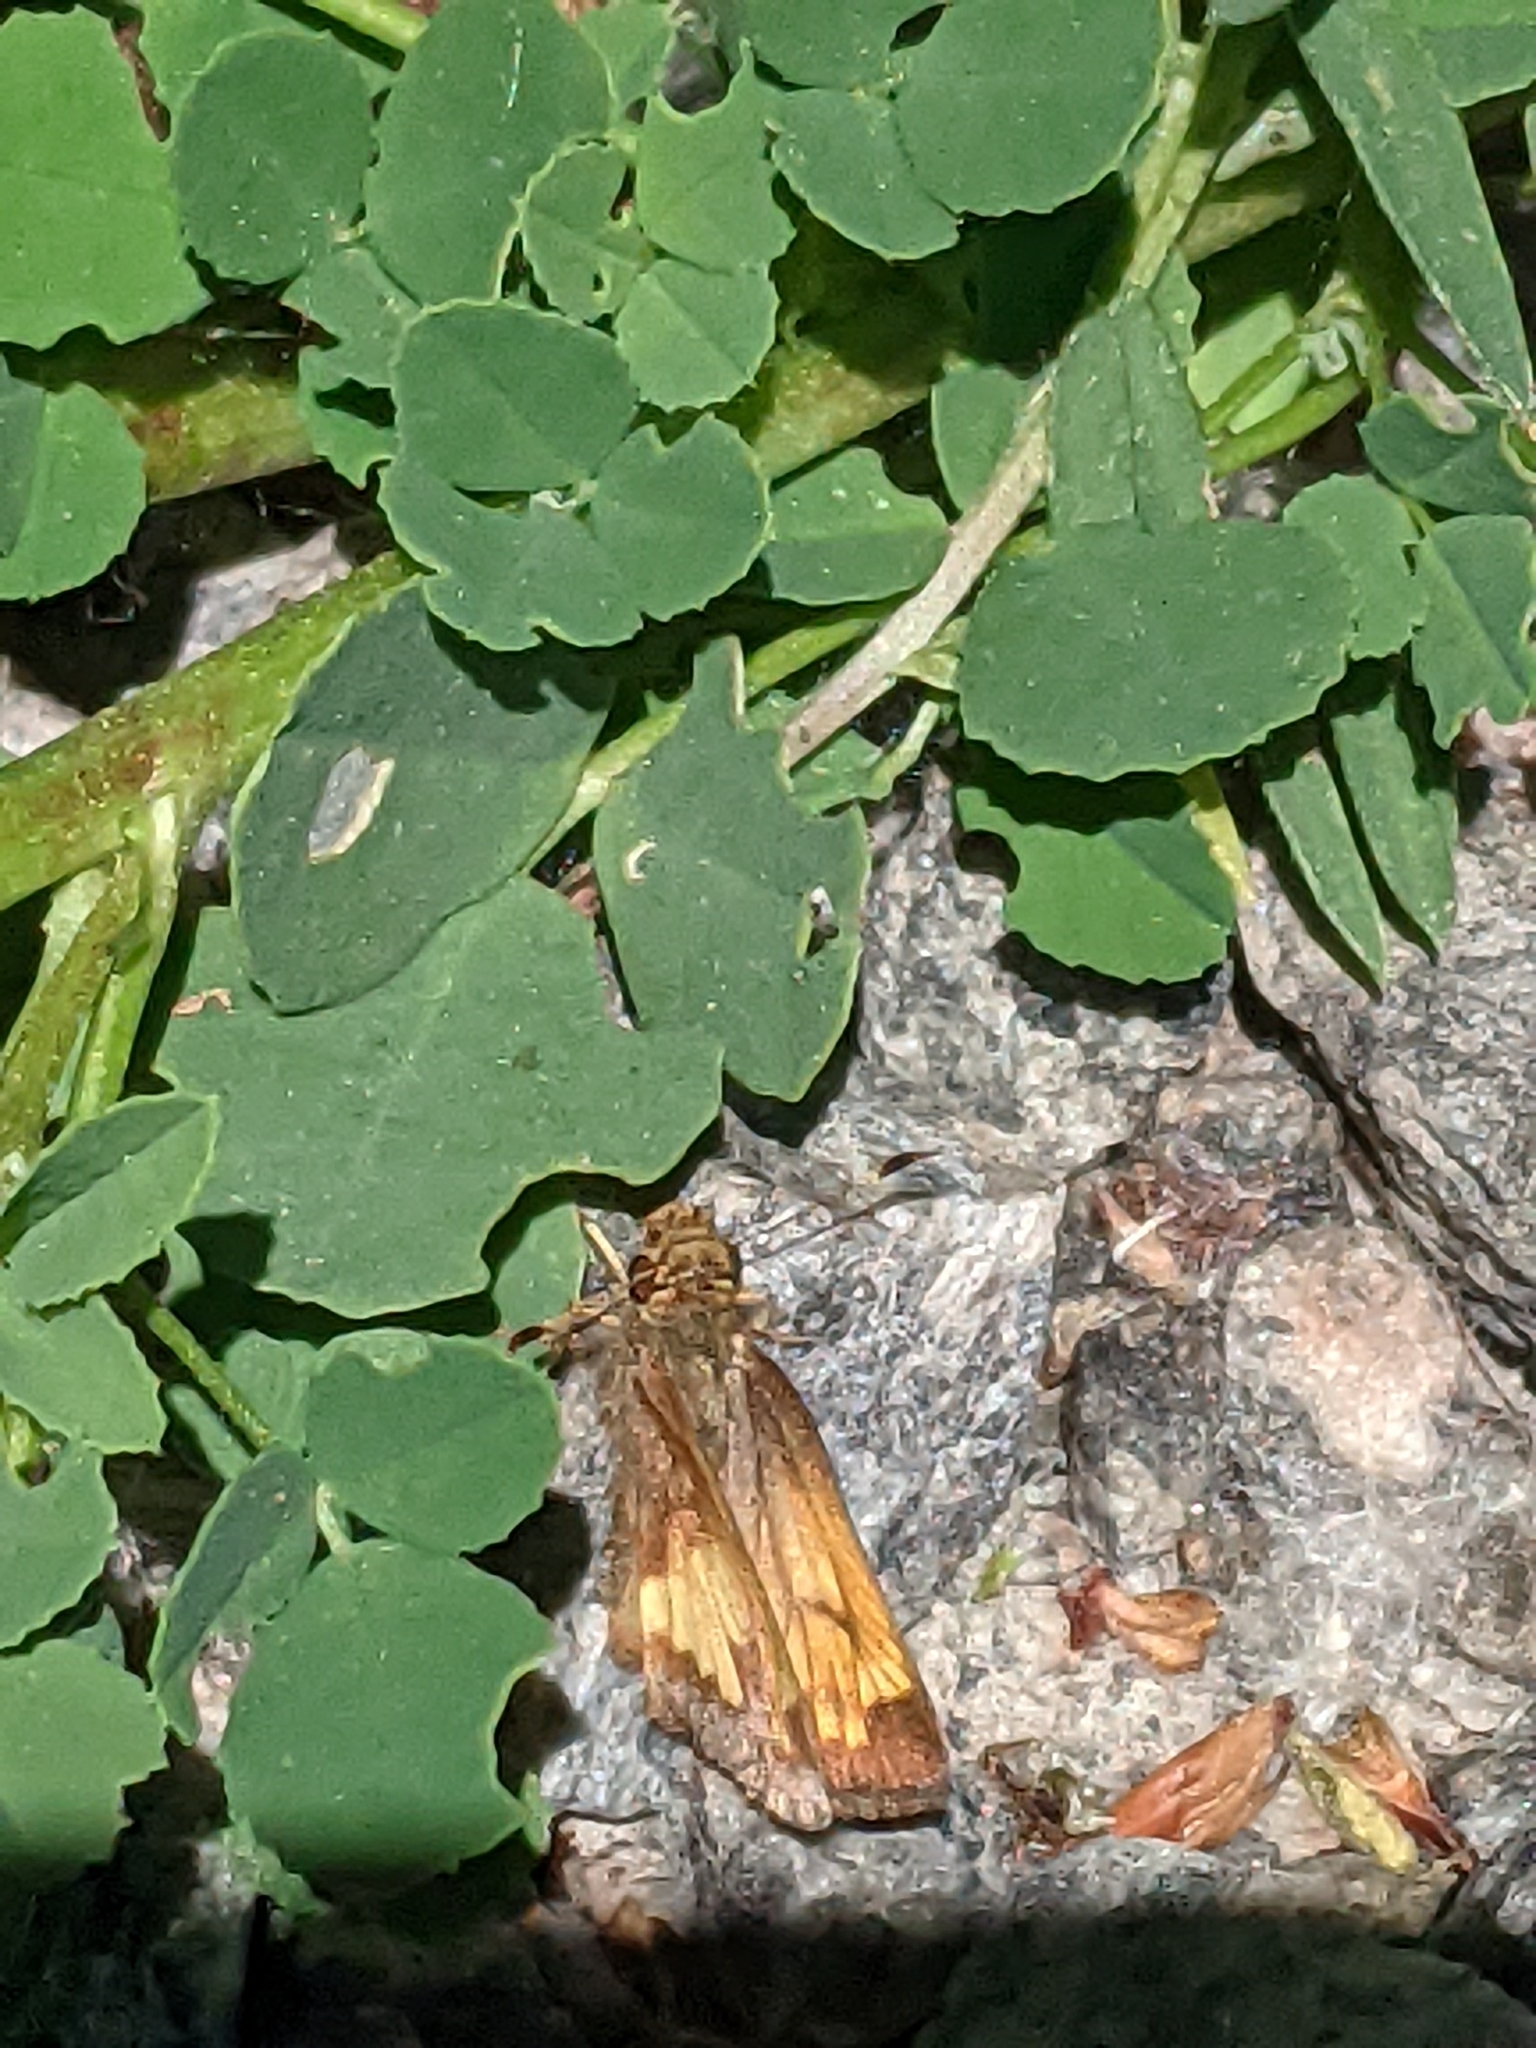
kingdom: Animalia
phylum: Arthropoda
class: Insecta
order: Lepidoptera
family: Hesperiidae
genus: Lon
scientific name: Lon hobomok
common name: Hobomok skipper
